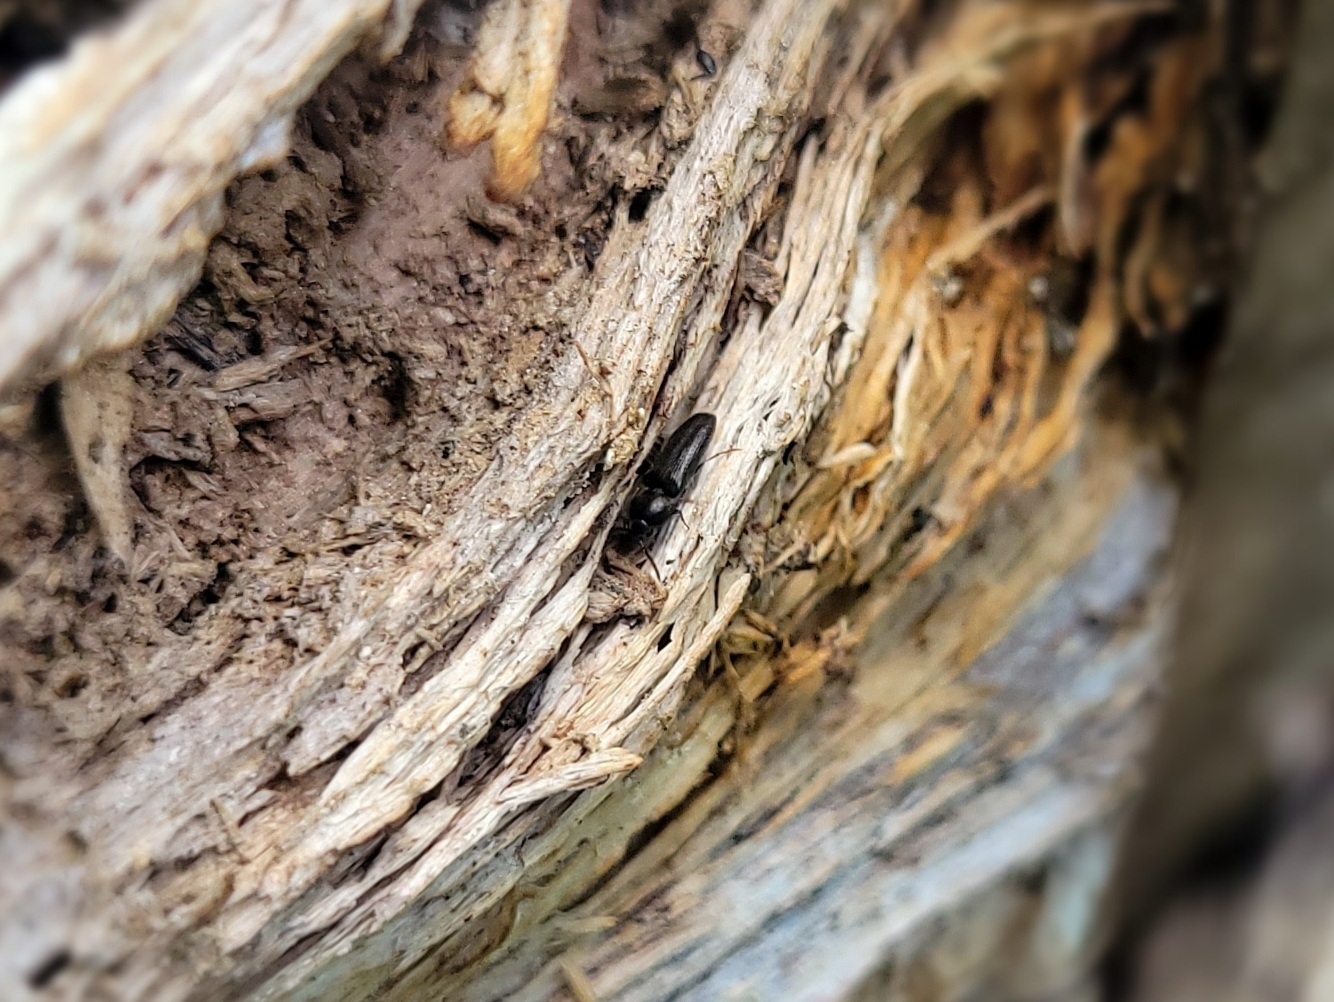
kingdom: Animalia
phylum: Arthropoda
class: Insecta
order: Coleoptera
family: Eucnemidae
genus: Isarthrus
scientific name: Isarthrus rufipes
